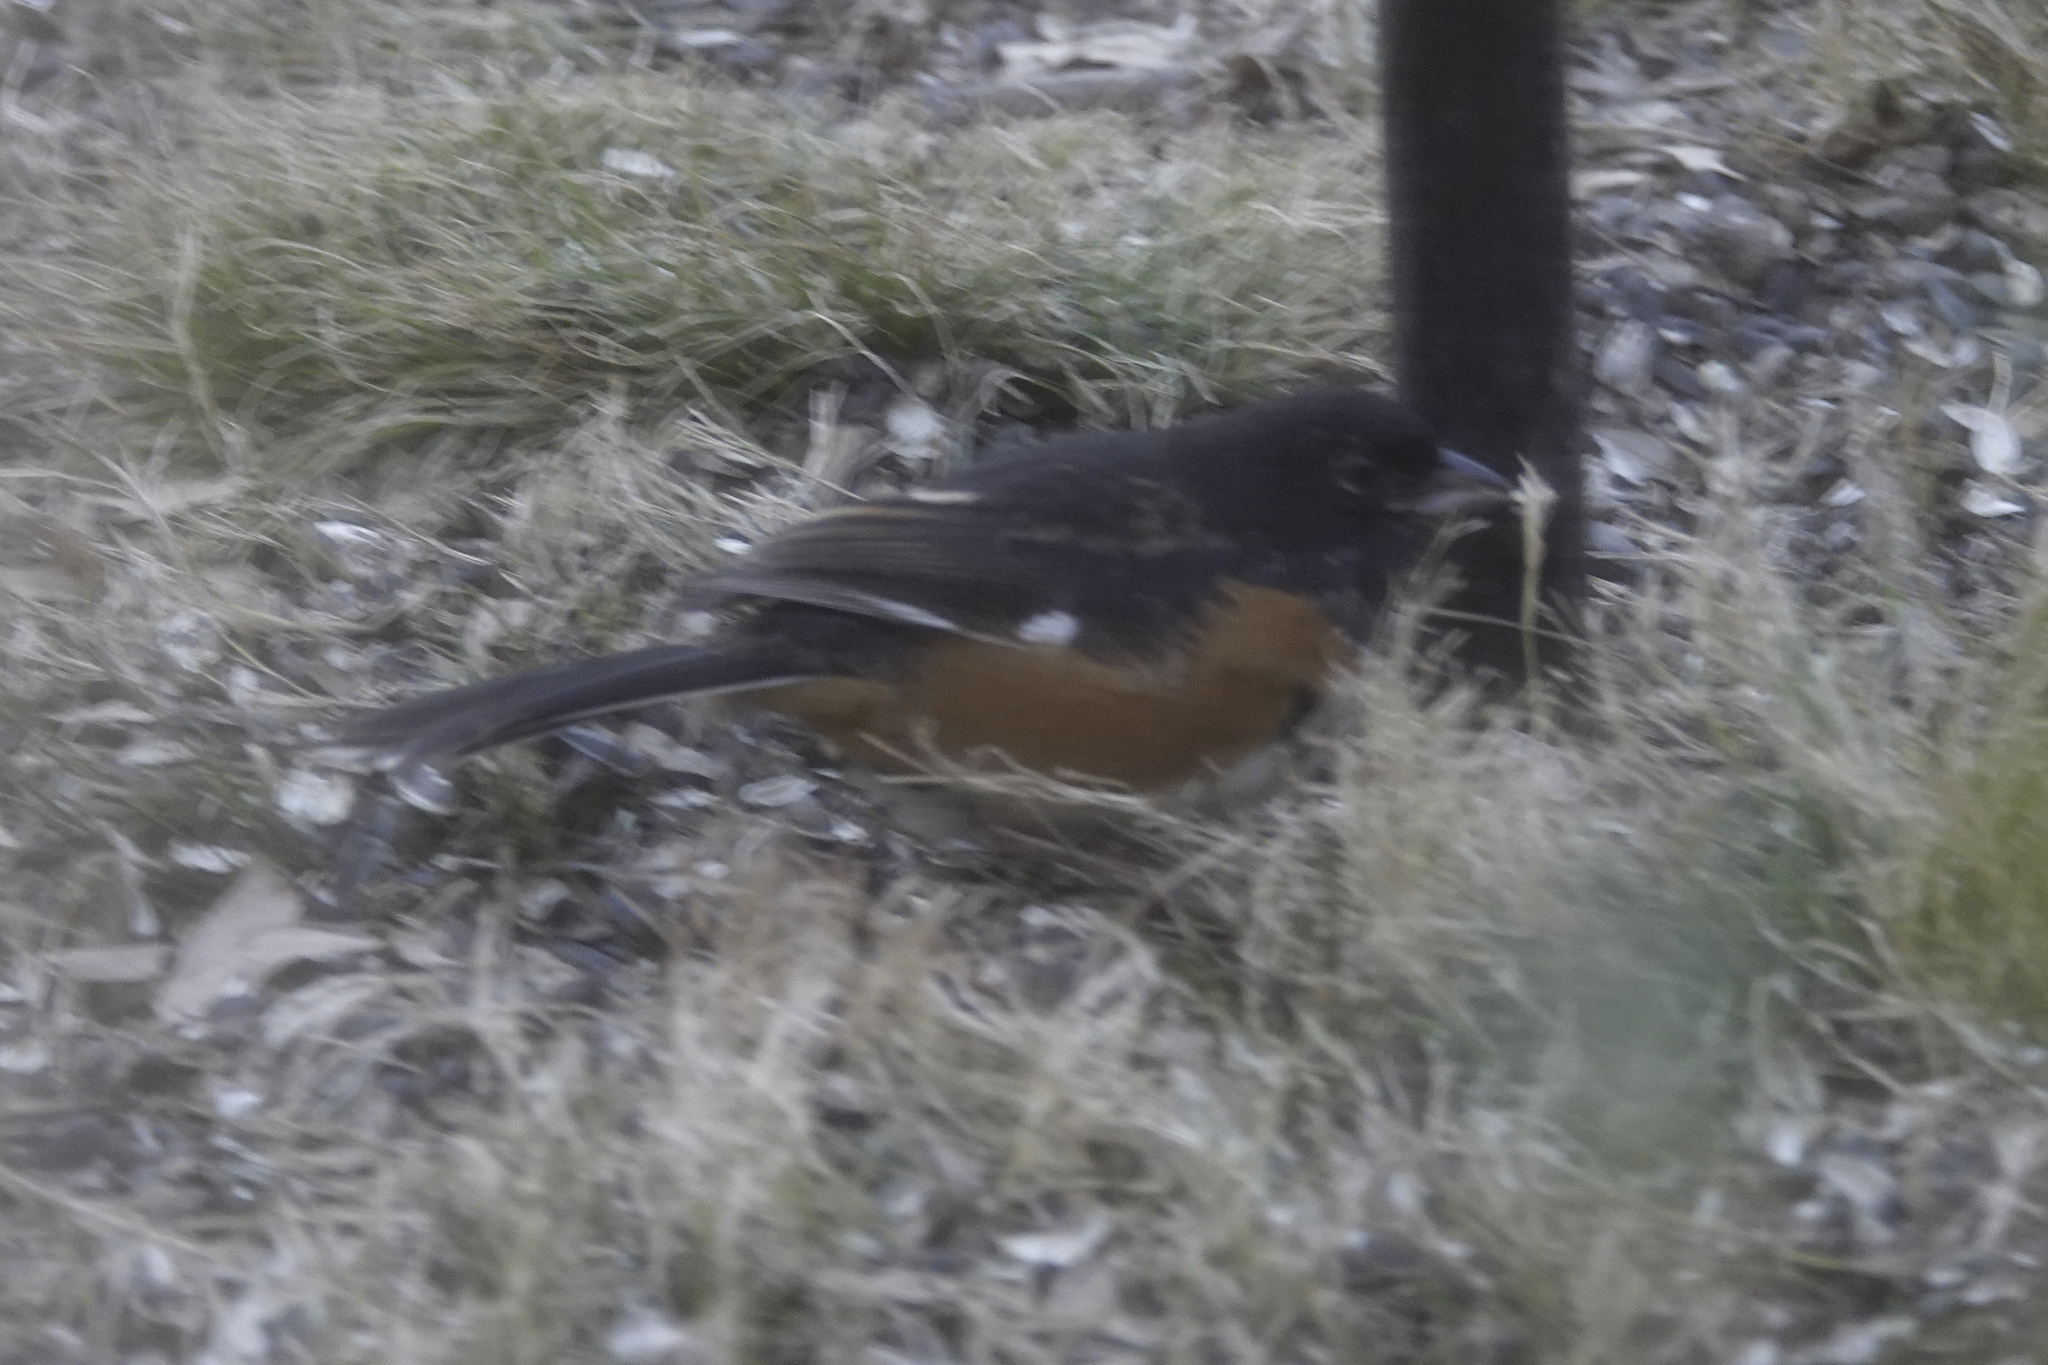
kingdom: Animalia
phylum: Chordata
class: Aves
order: Passeriformes
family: Passerellidae
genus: Pipilo
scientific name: Pipilo erythrophthalmus
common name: Eastern towhee
